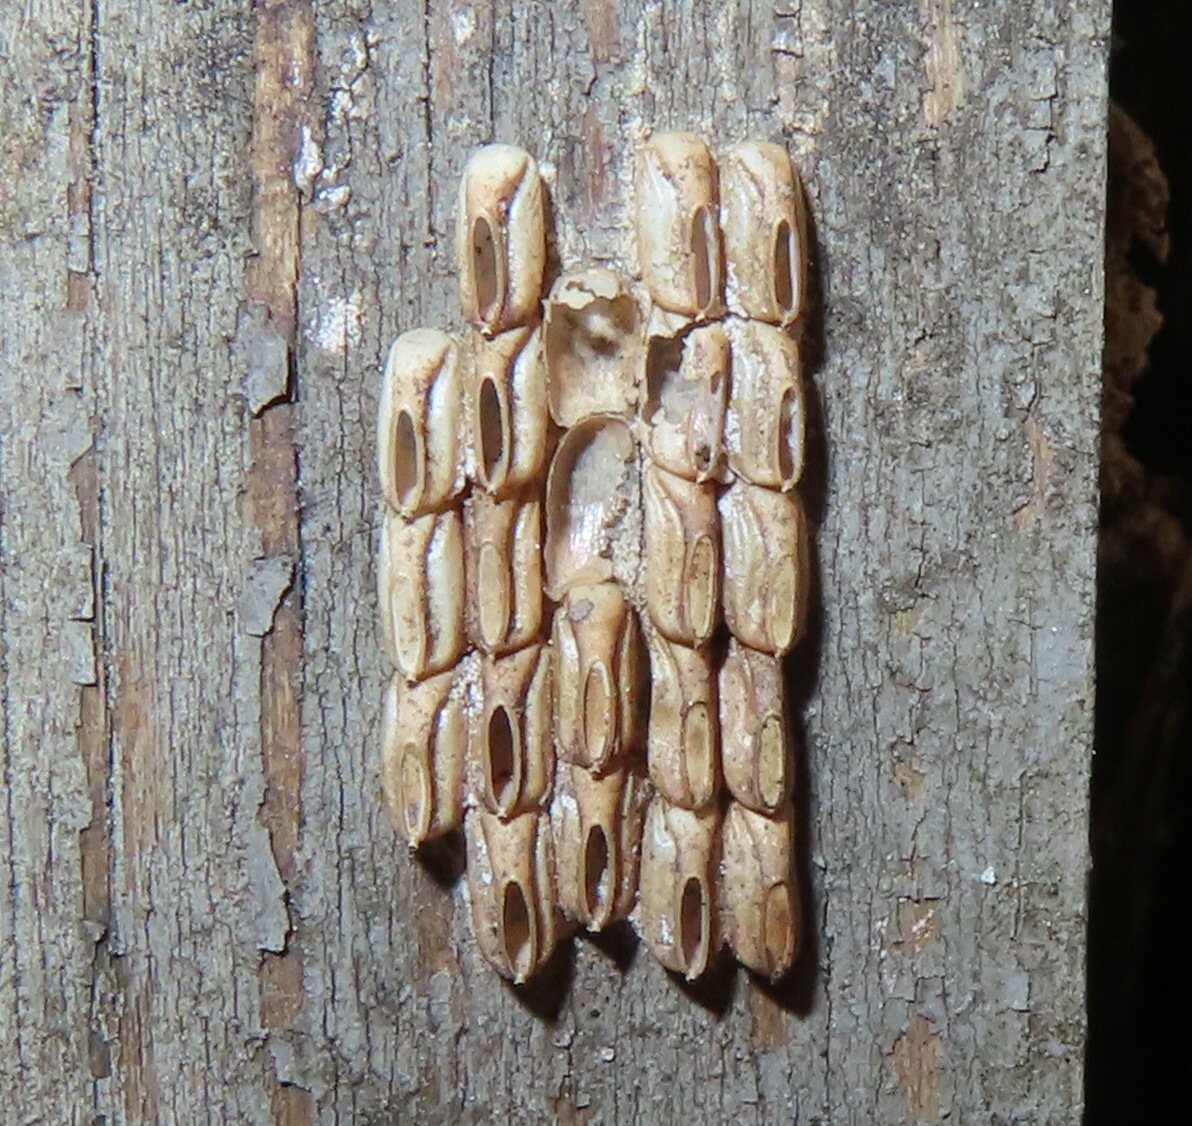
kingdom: Animalia
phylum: Arthropoda
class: Insecta
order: Hemiptera
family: Fulgoridae
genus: Lycorma
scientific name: Lycorma delicatula
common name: Spotted lanternfly
